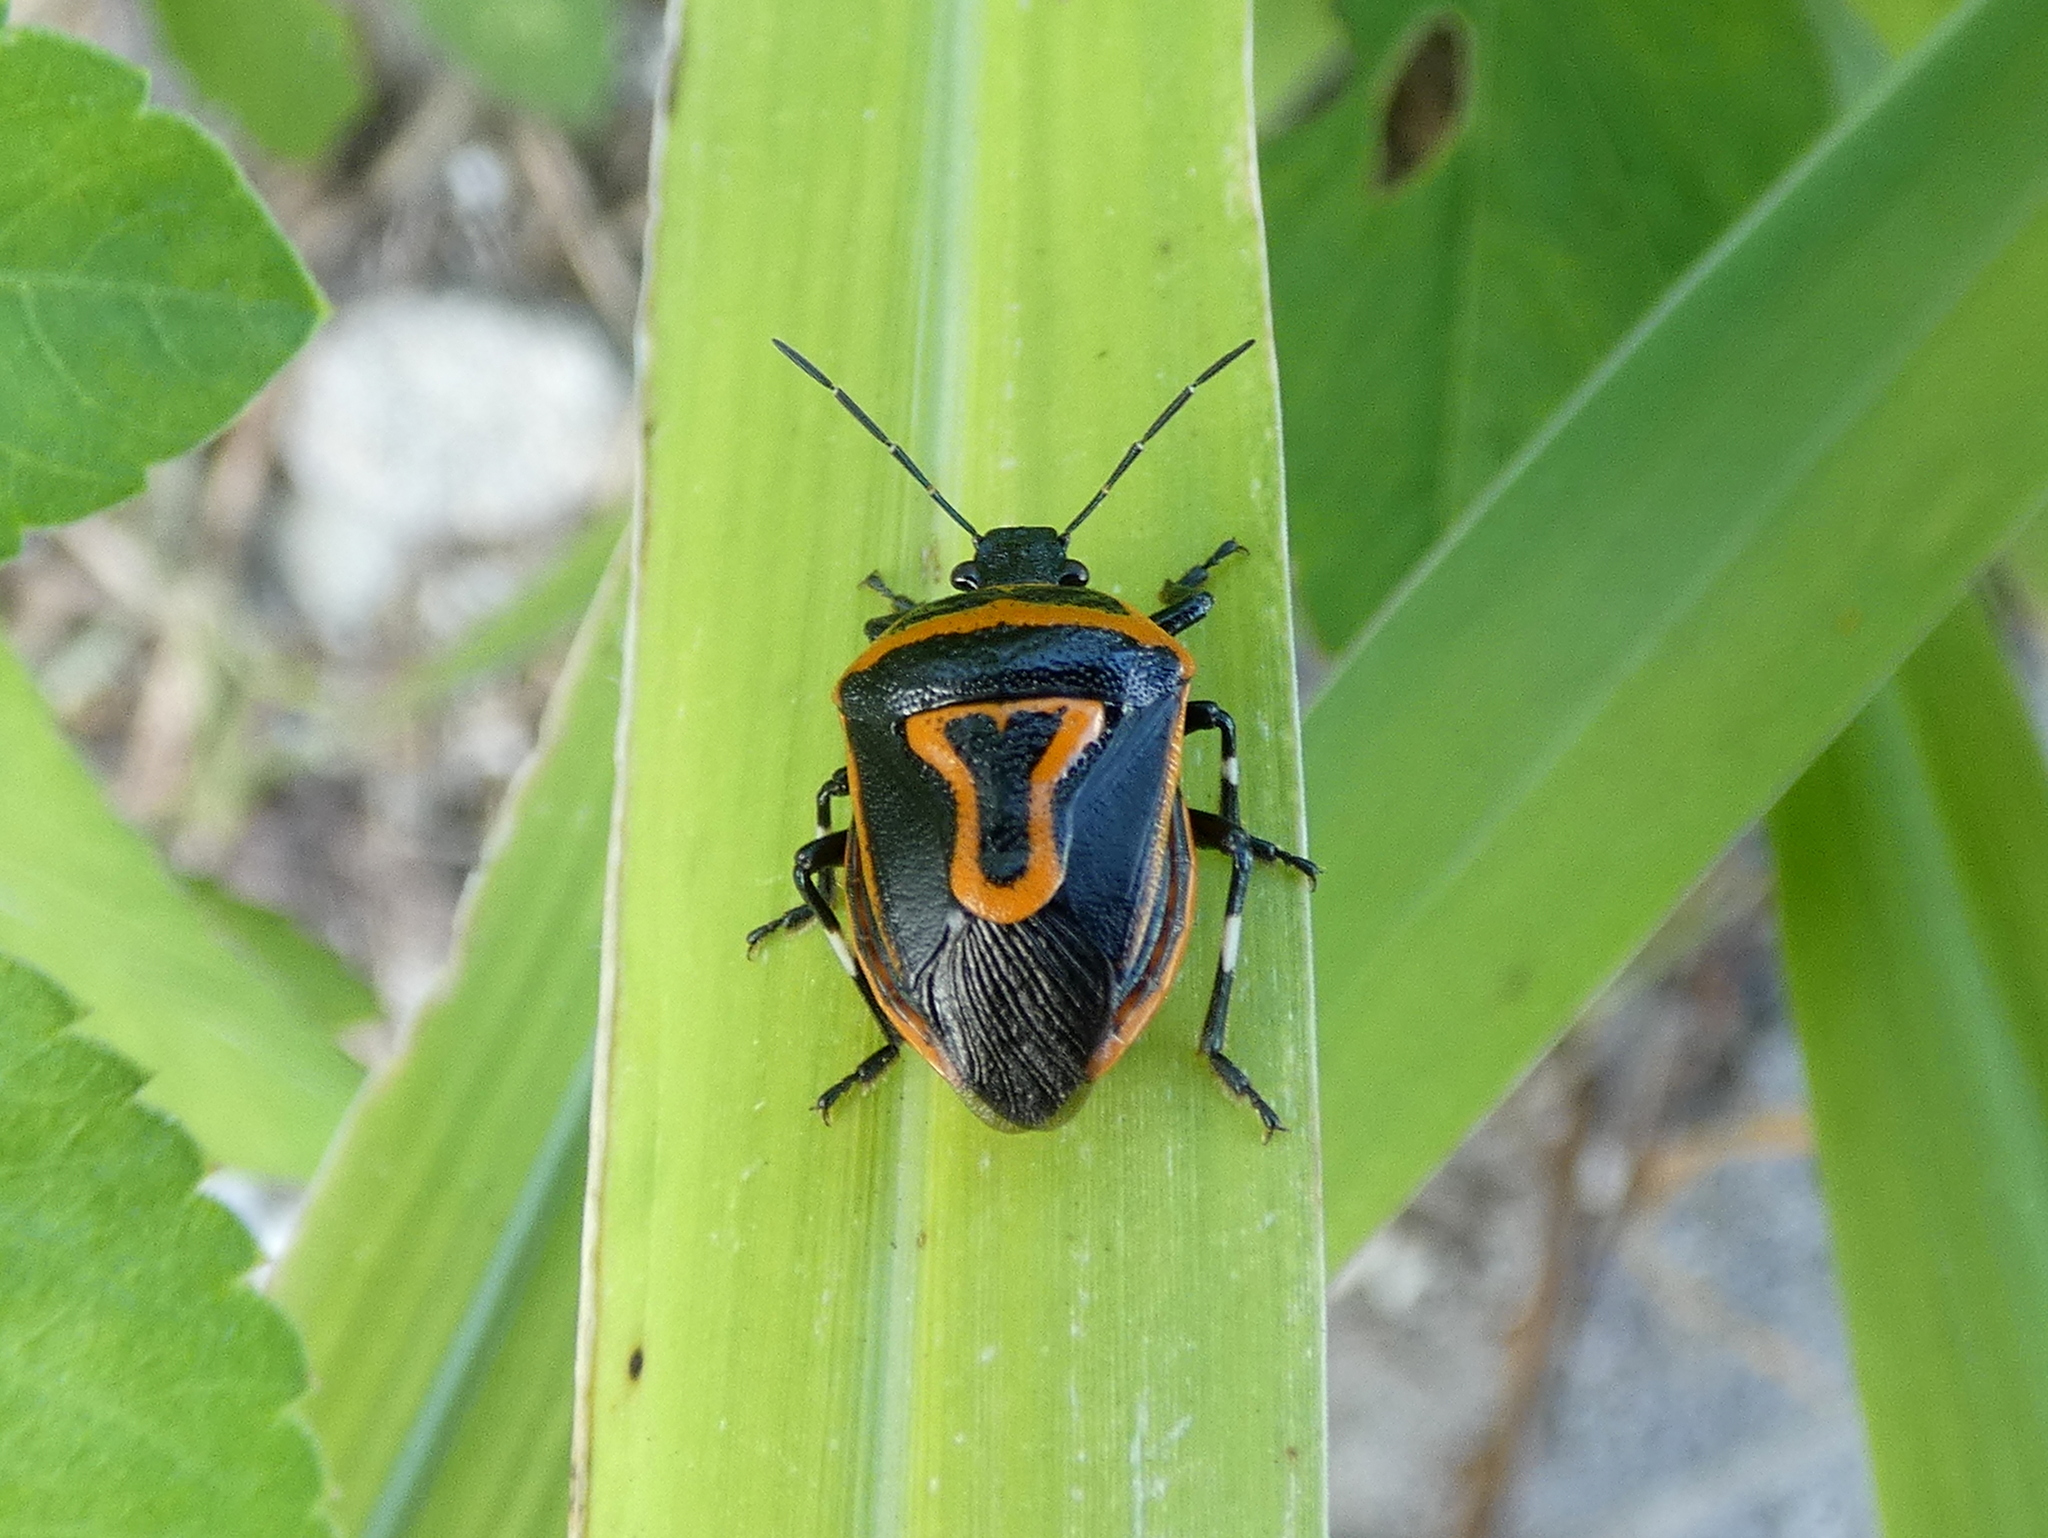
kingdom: Animalia
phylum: Arthropoda
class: Insecta
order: Hemiptera
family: Pentatomidae
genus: Perillus
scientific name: Perillus bioculatus
